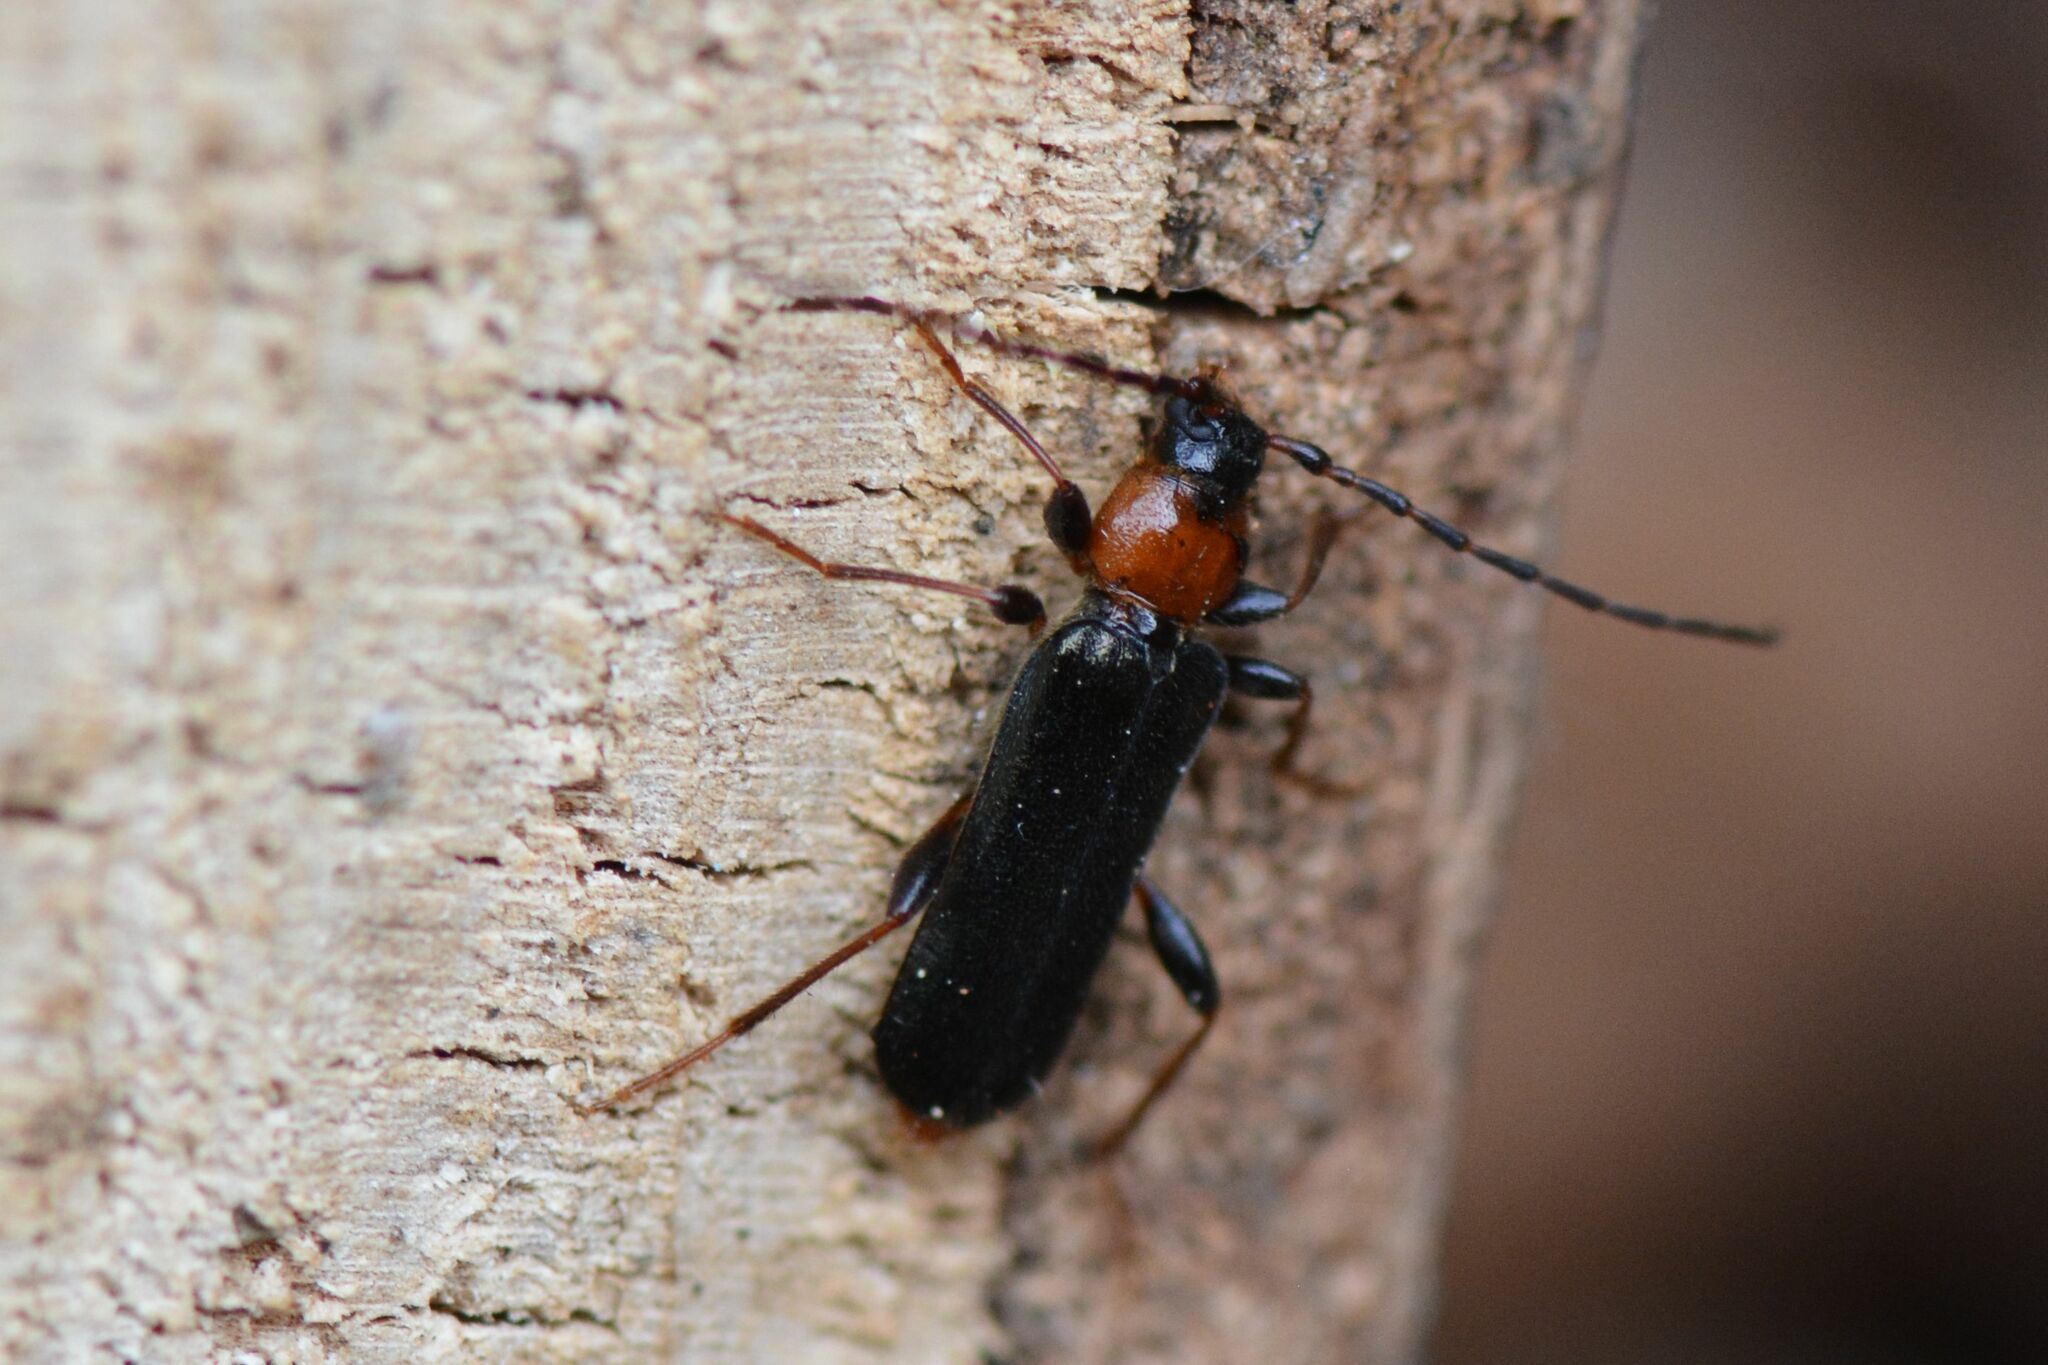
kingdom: Animalia
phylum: Arthropoda
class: Insecta
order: Coleoptera
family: Cerambycidae
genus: Phymatodes
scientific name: Phymatodes testaceus
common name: Long-horned beetle
